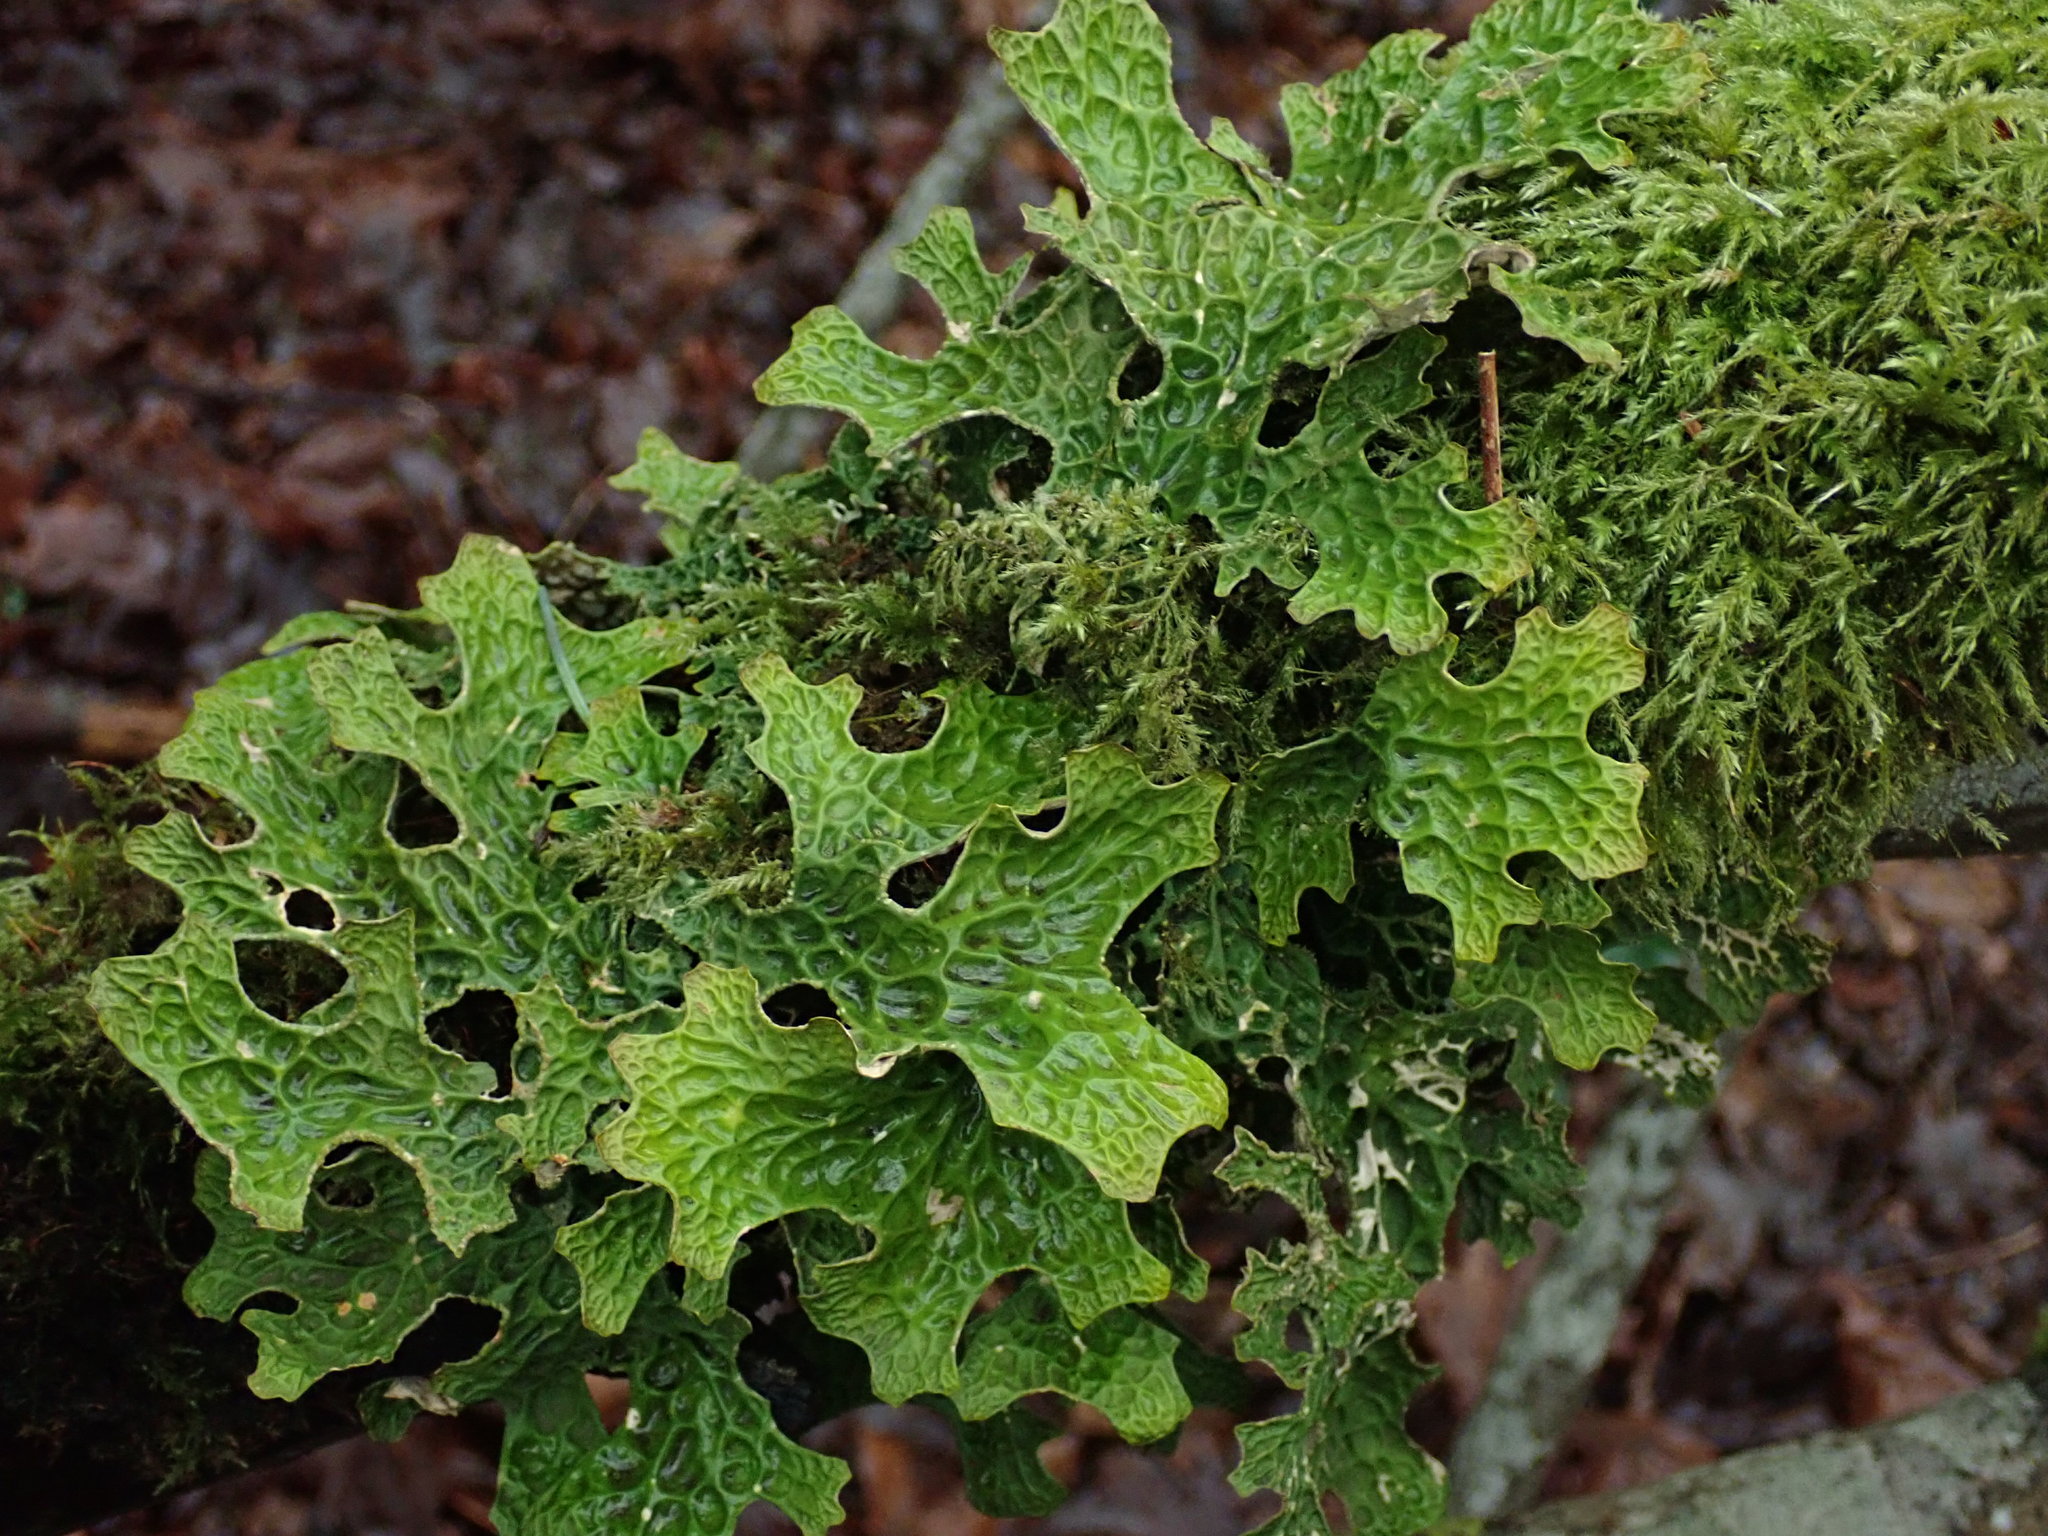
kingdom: Fungi
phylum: Ascomycota
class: Lecanoromycetes
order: Peltigerales
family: Lobariaceae
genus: Lobaria
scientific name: Lobaria pulmonaria
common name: Lungwort
